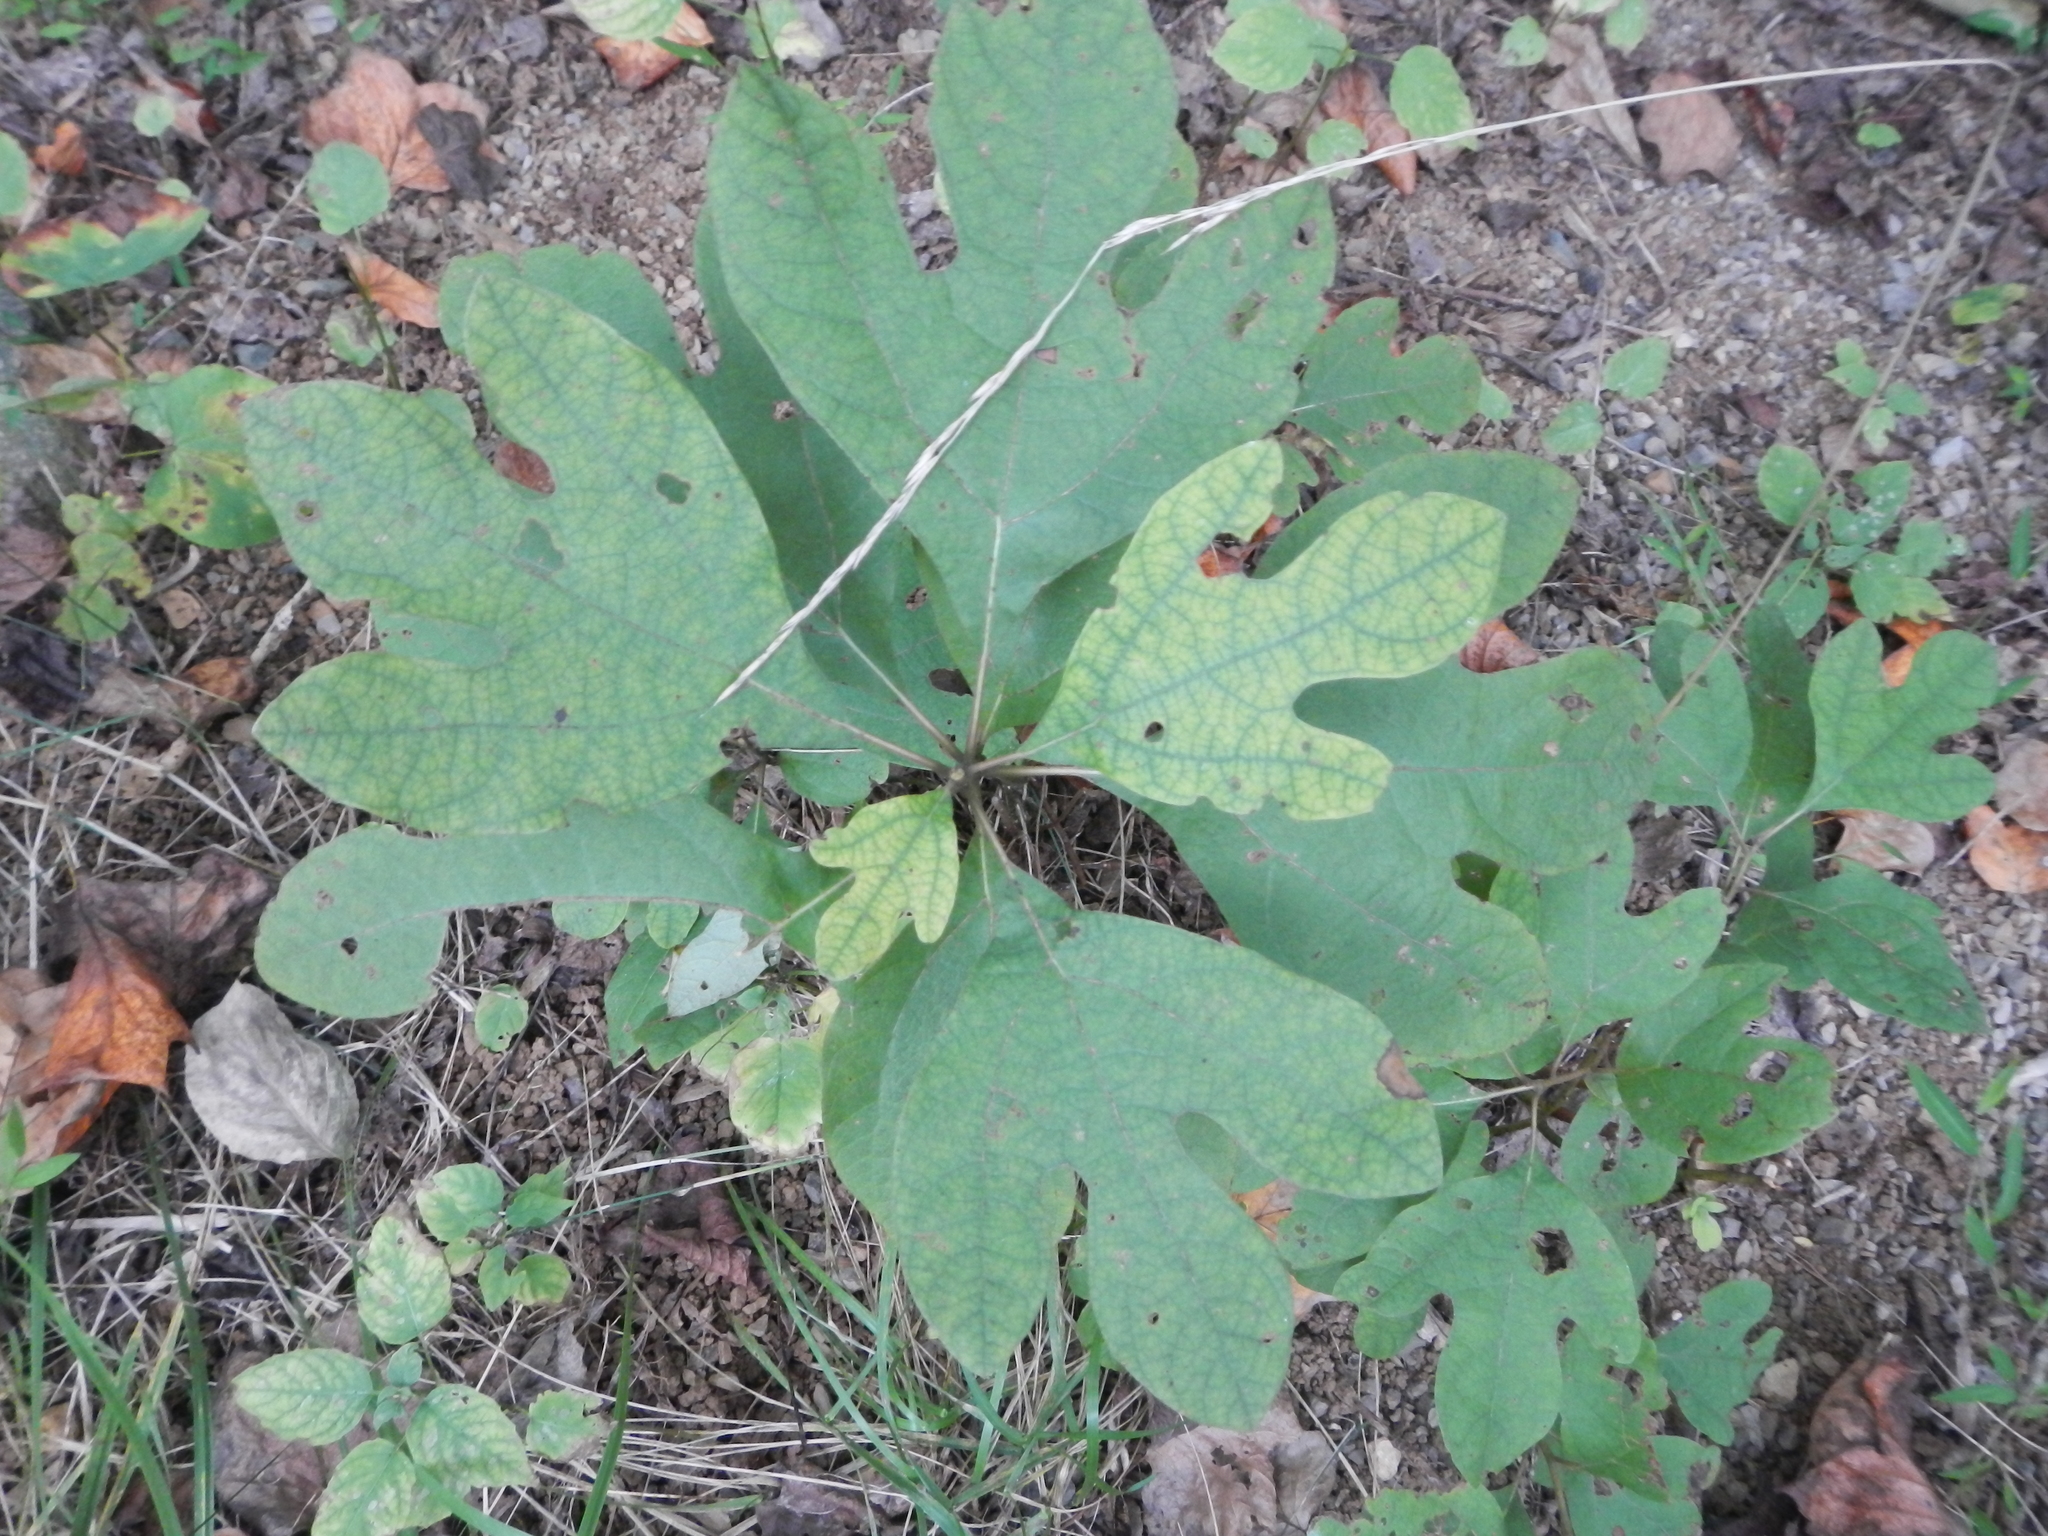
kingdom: Plantae
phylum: Tracheophyta
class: Magnoliopsida
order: Laurales
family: Lauraceae
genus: Sassafras
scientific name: Sassafras albidum
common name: Sassafras
